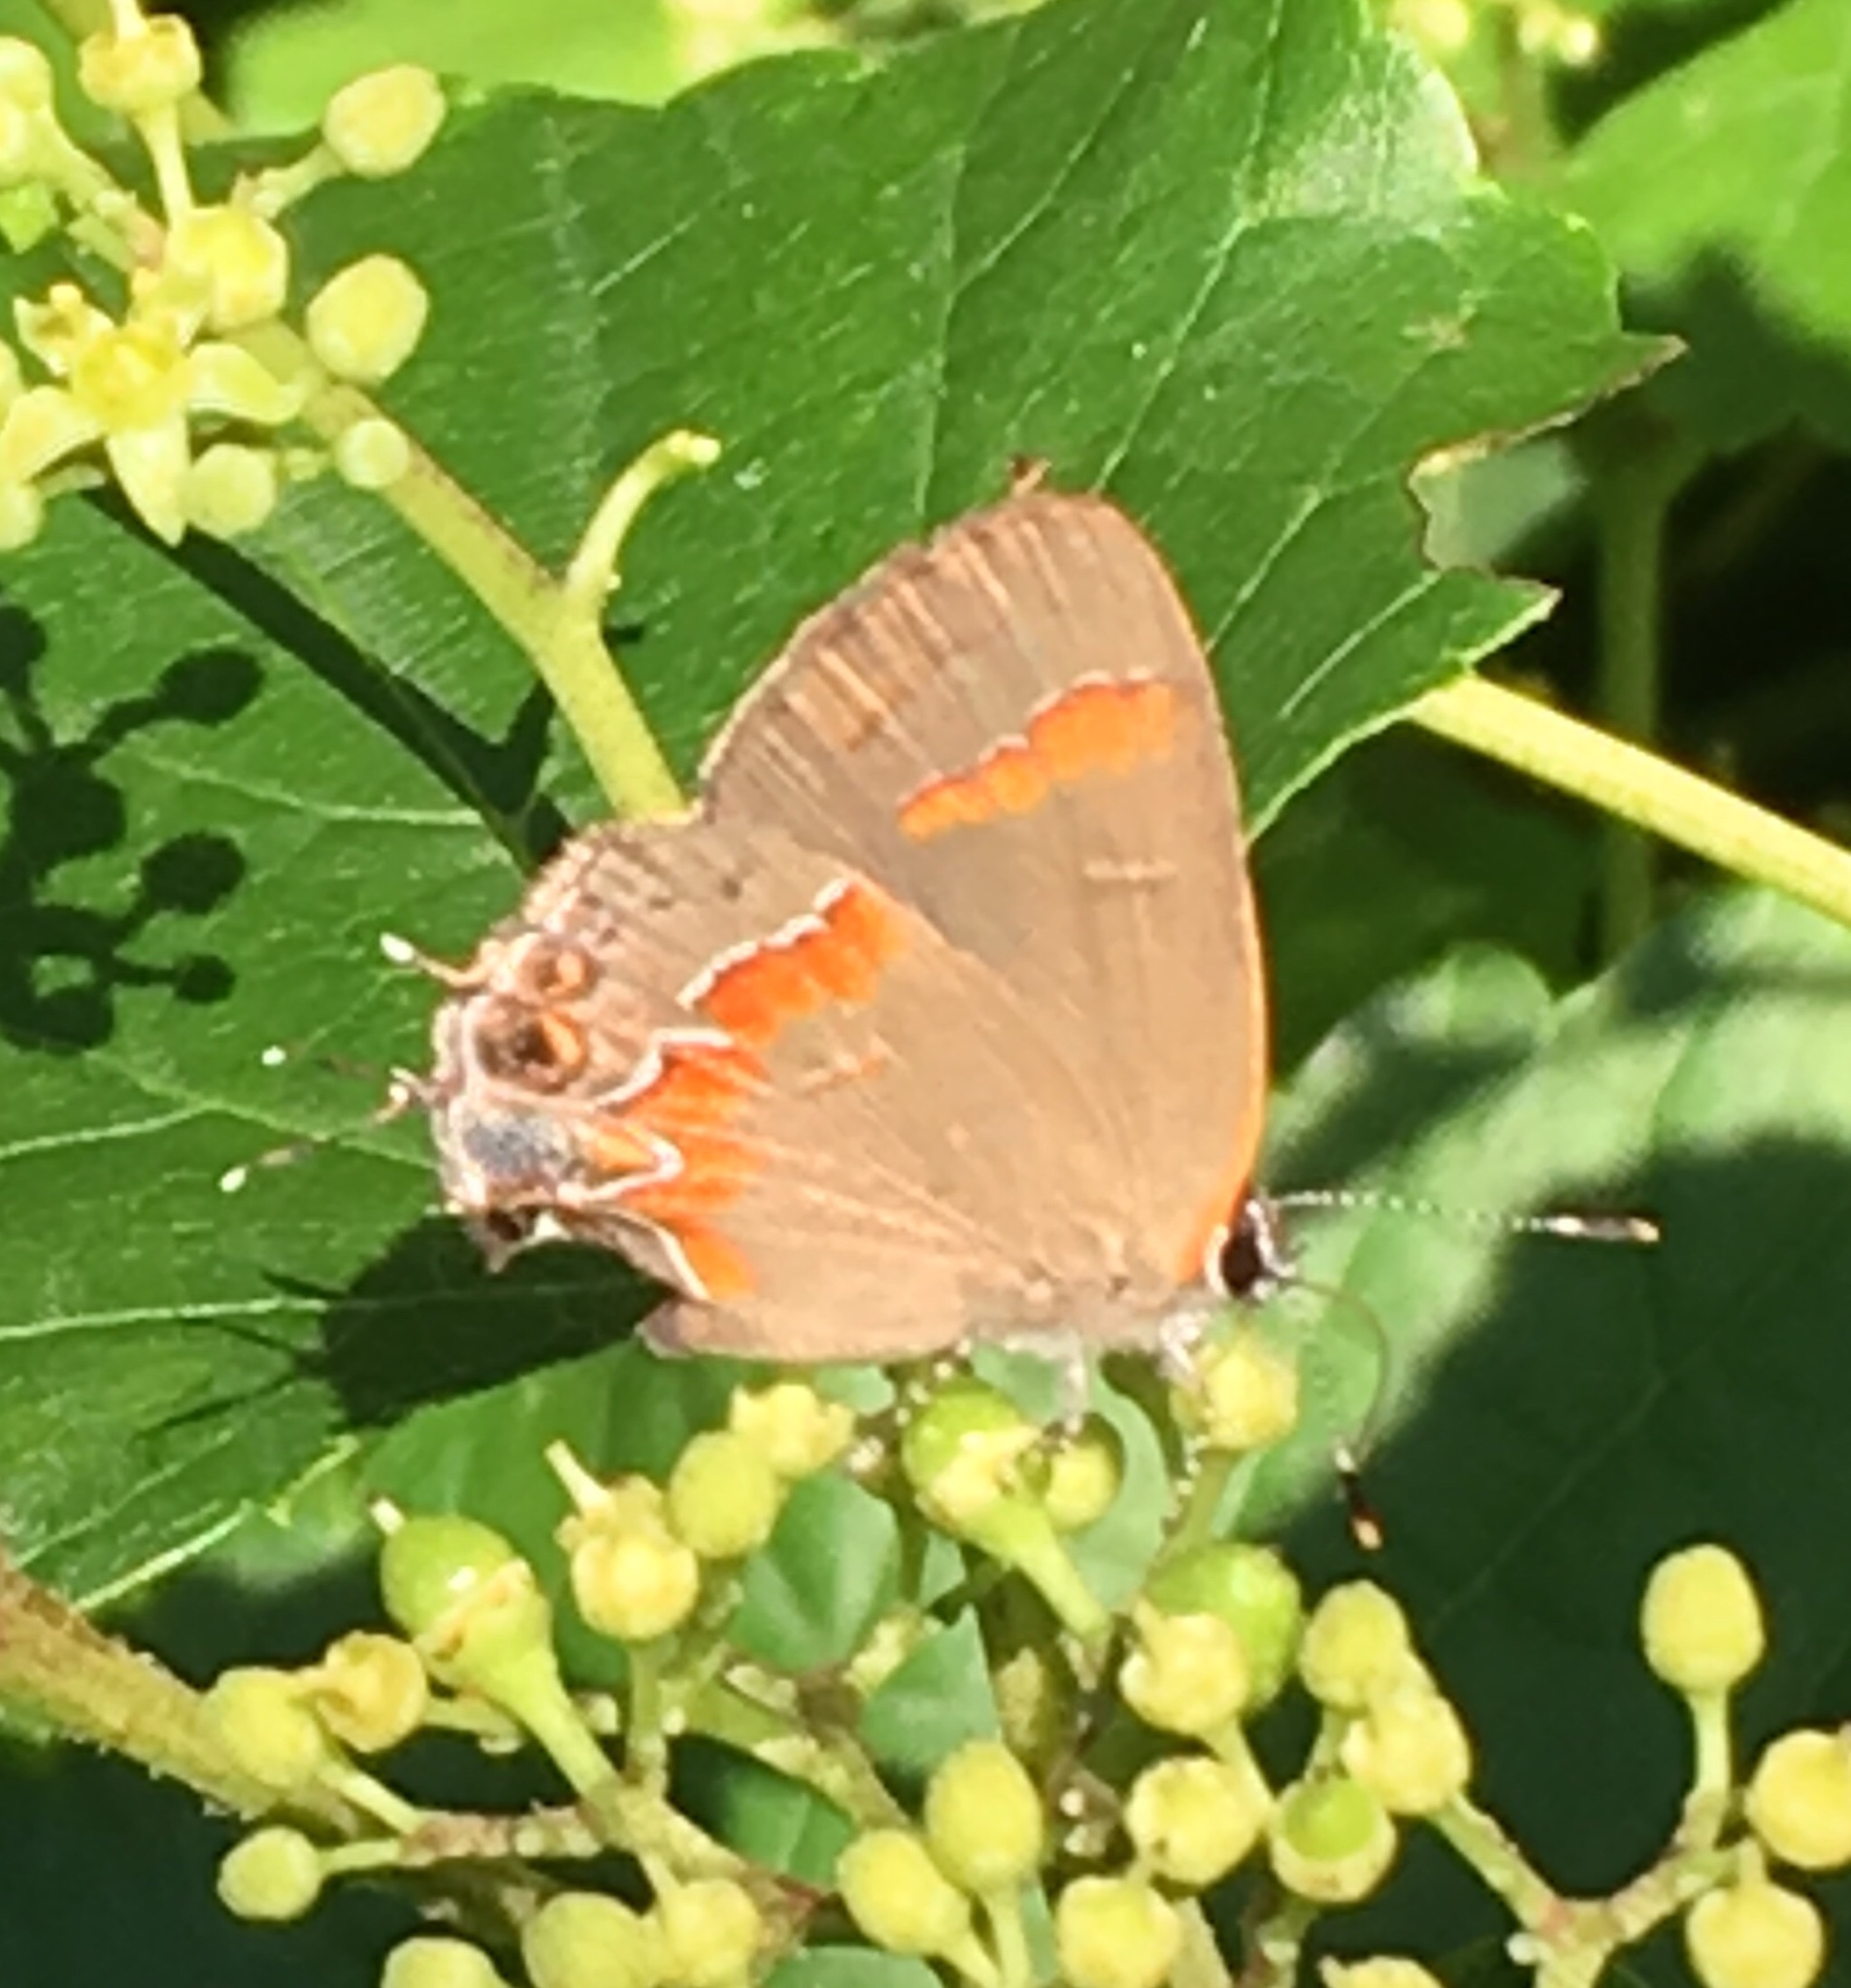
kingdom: Animalia
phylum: Arthropoda
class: Insecta
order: Lepidoptera
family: Lycaenidae
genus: Calycopis
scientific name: Calycopis cecrops
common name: Red-banded hairstreak
